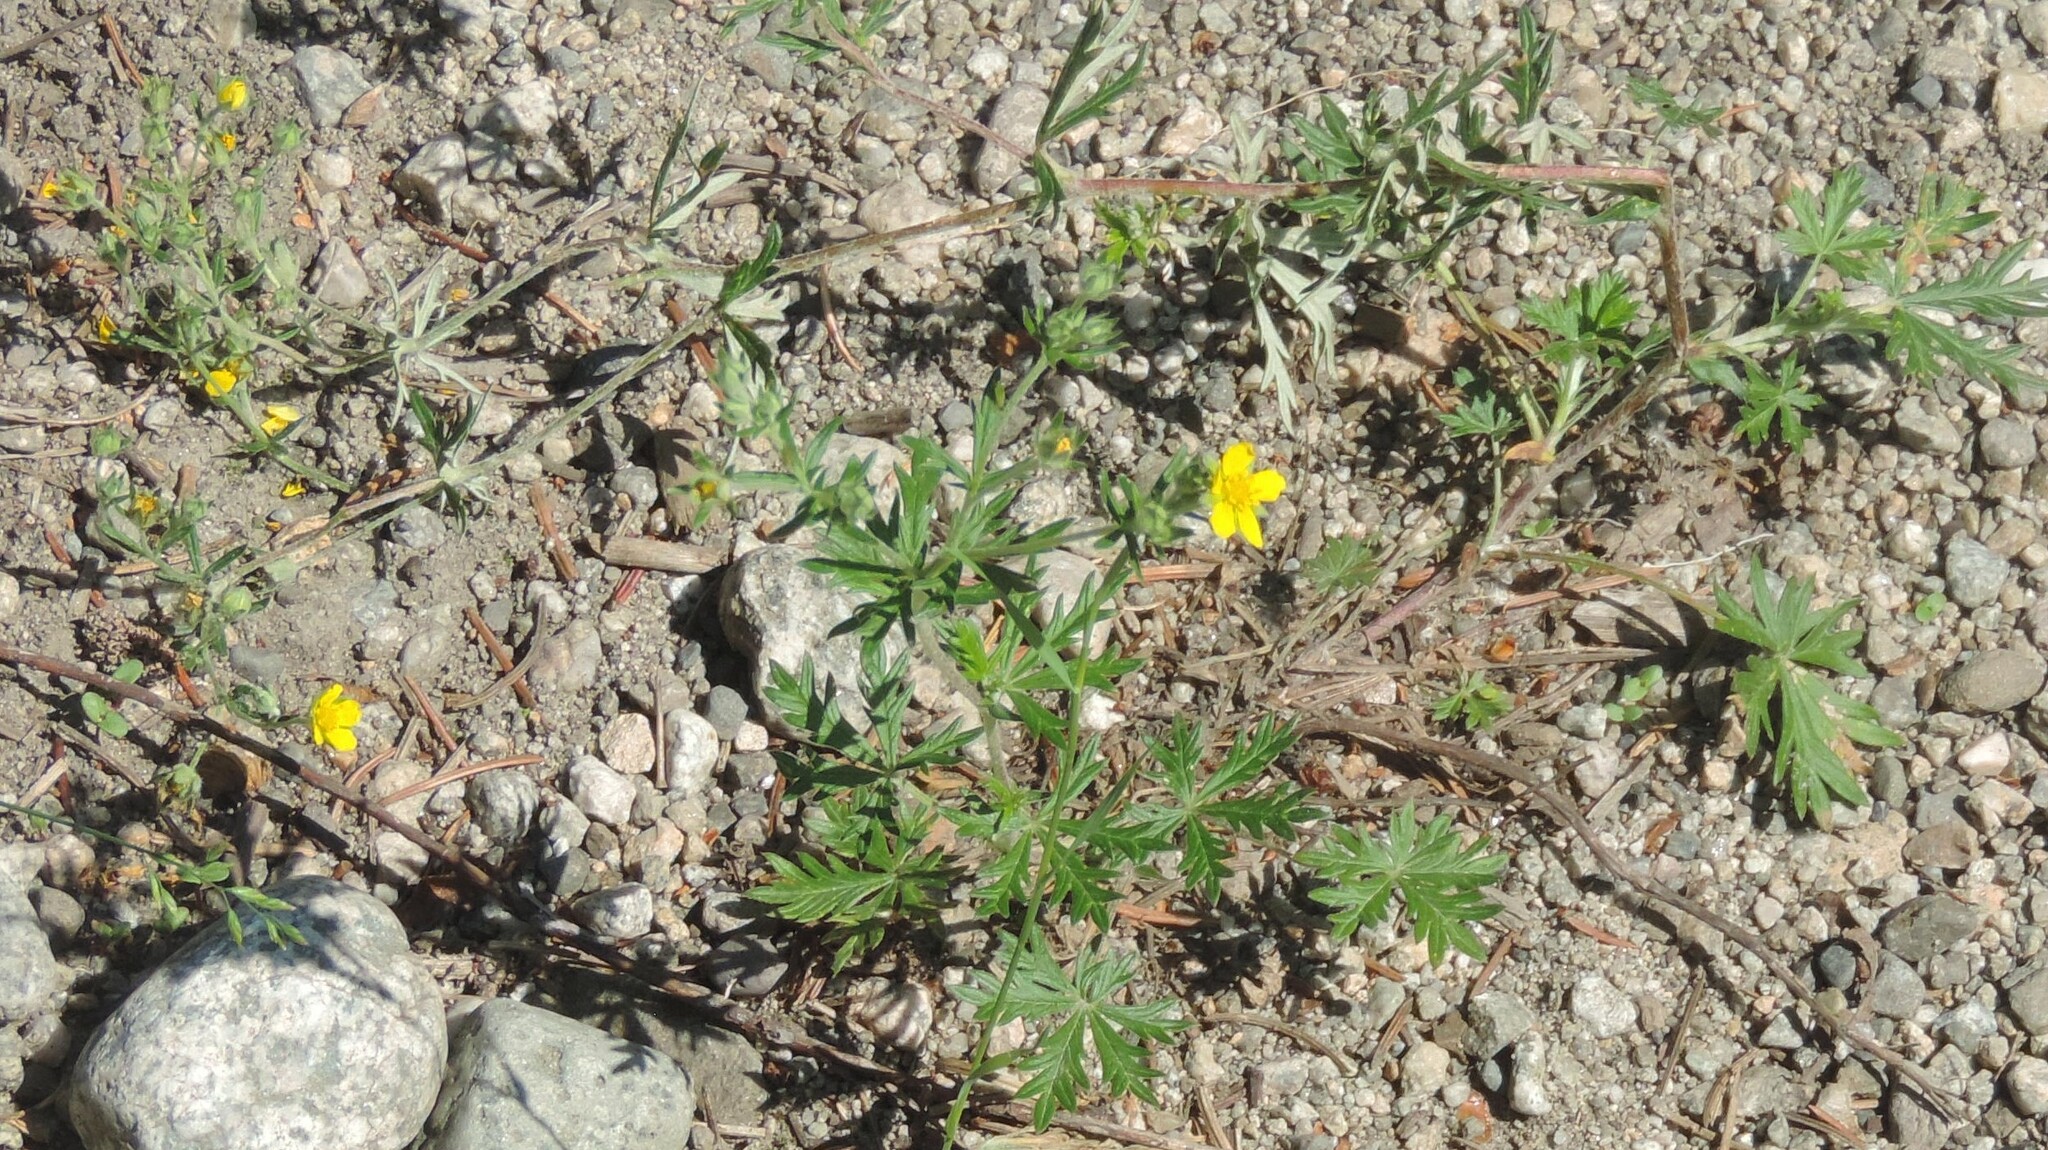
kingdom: Plantae
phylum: Tracheophyta
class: Magnoliopsida
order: Rosales
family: Rosaceae
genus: Potentilla
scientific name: Potentilla argentea
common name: Hoary cinquefoil
